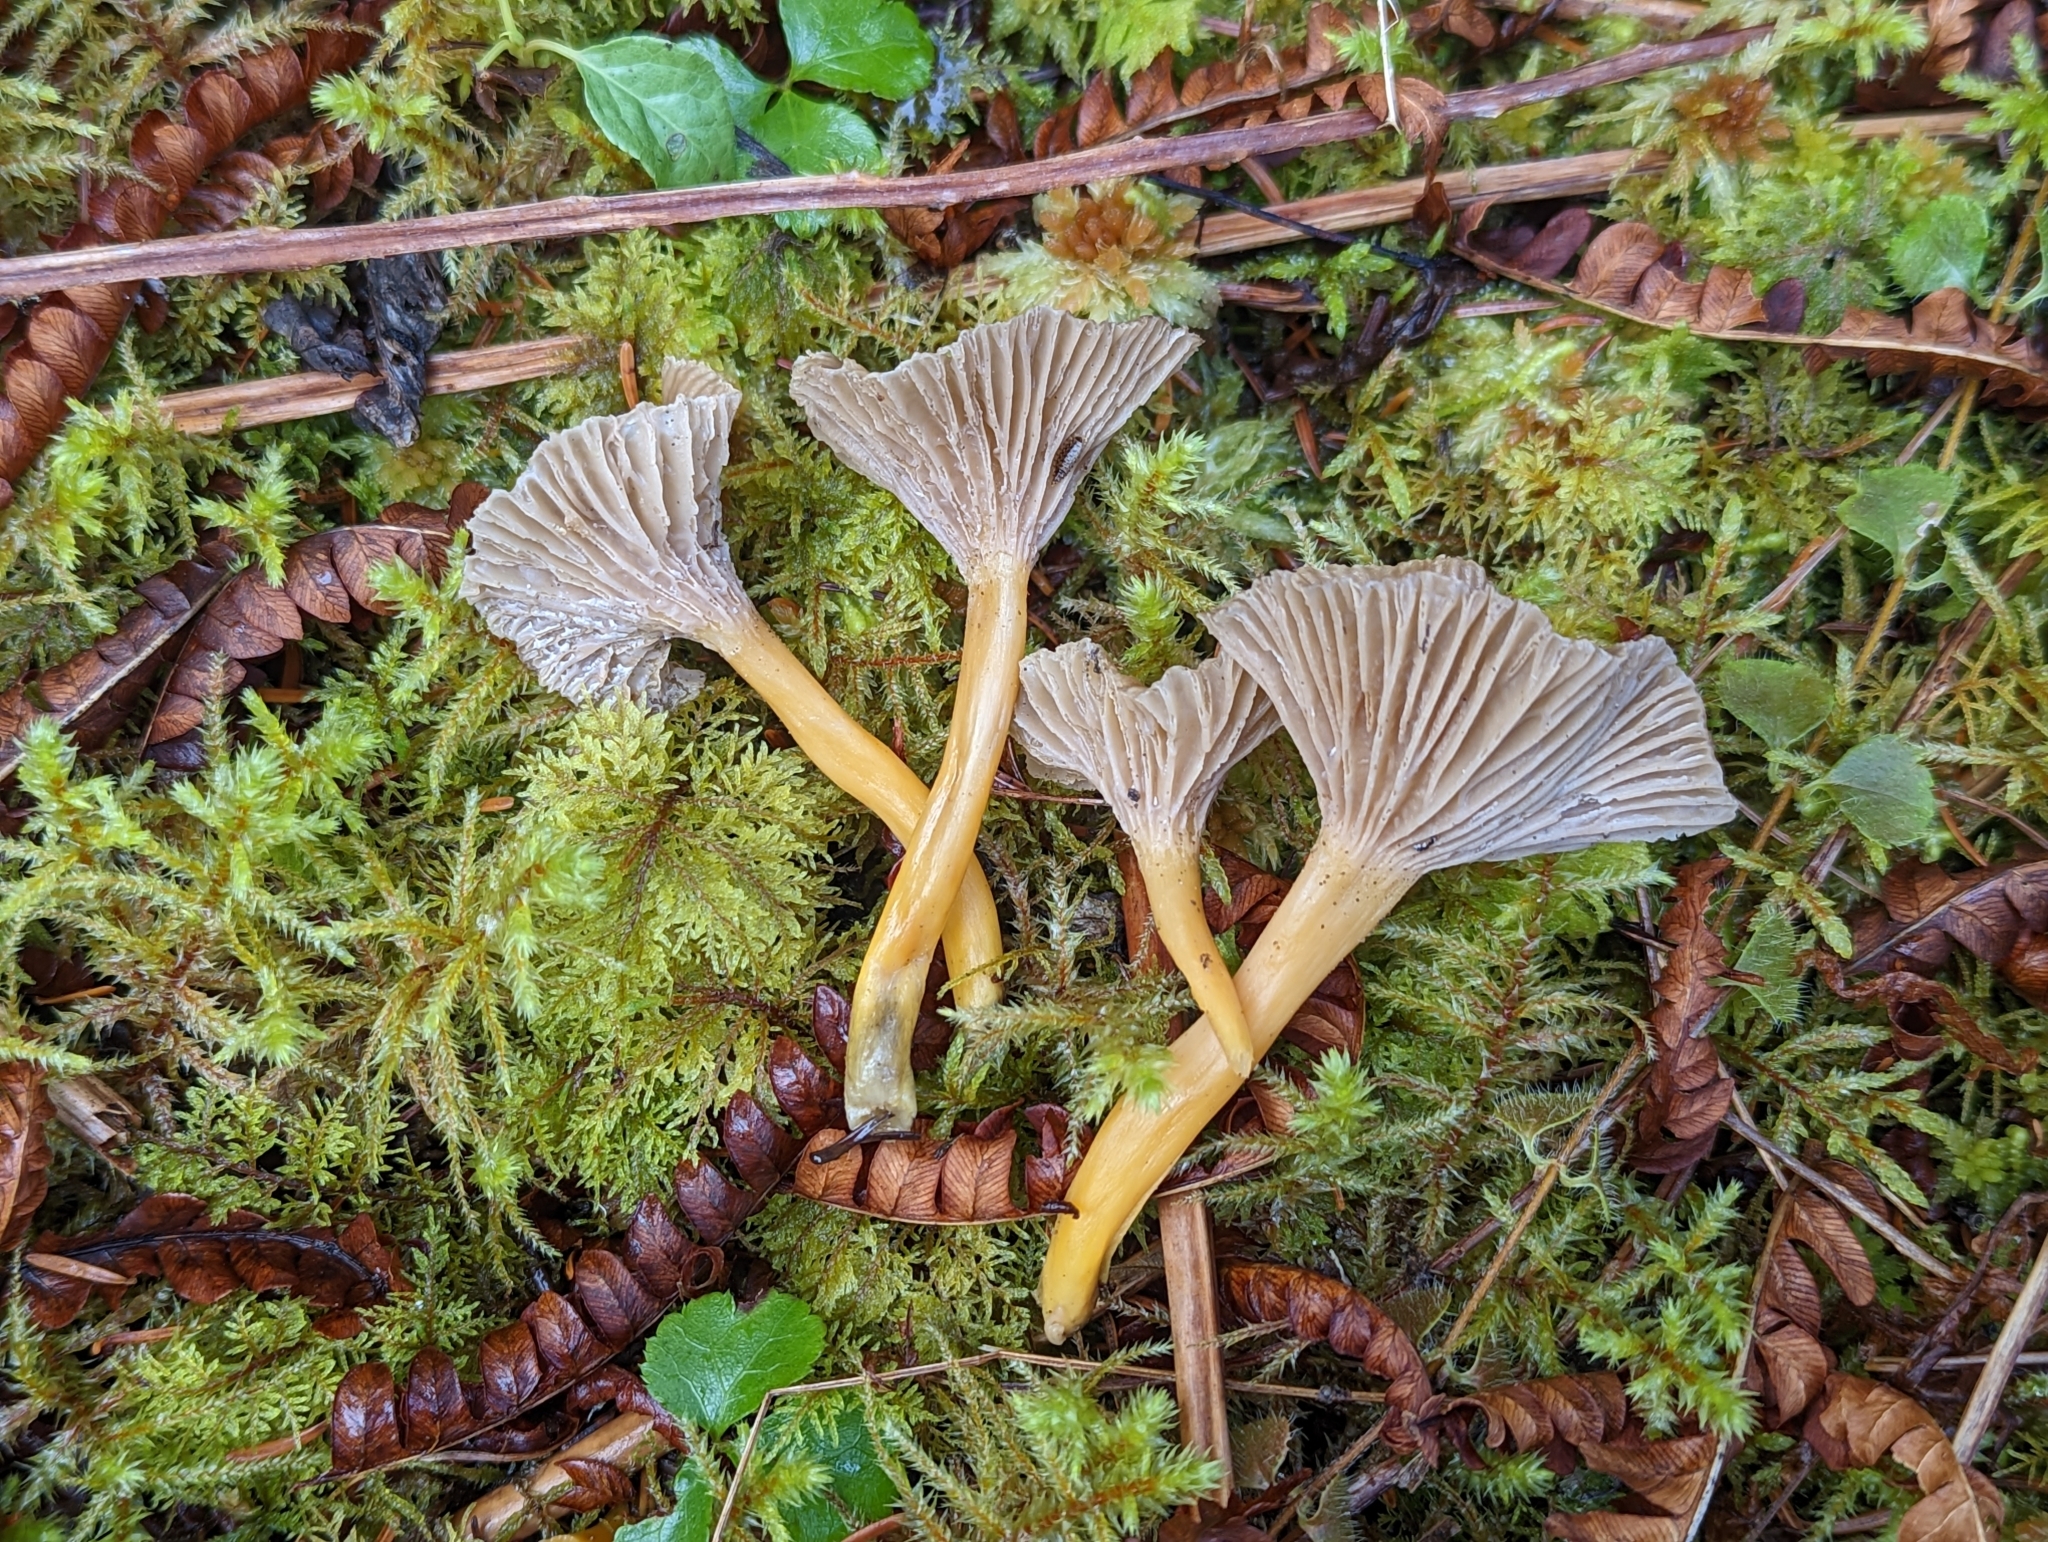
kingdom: Fungi
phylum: Basidiomycota
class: Agaricomycetes
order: Cantharellales
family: Hydnaceae
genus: Craterellus
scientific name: Craterellus tubaeformis
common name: Yellowfoot
